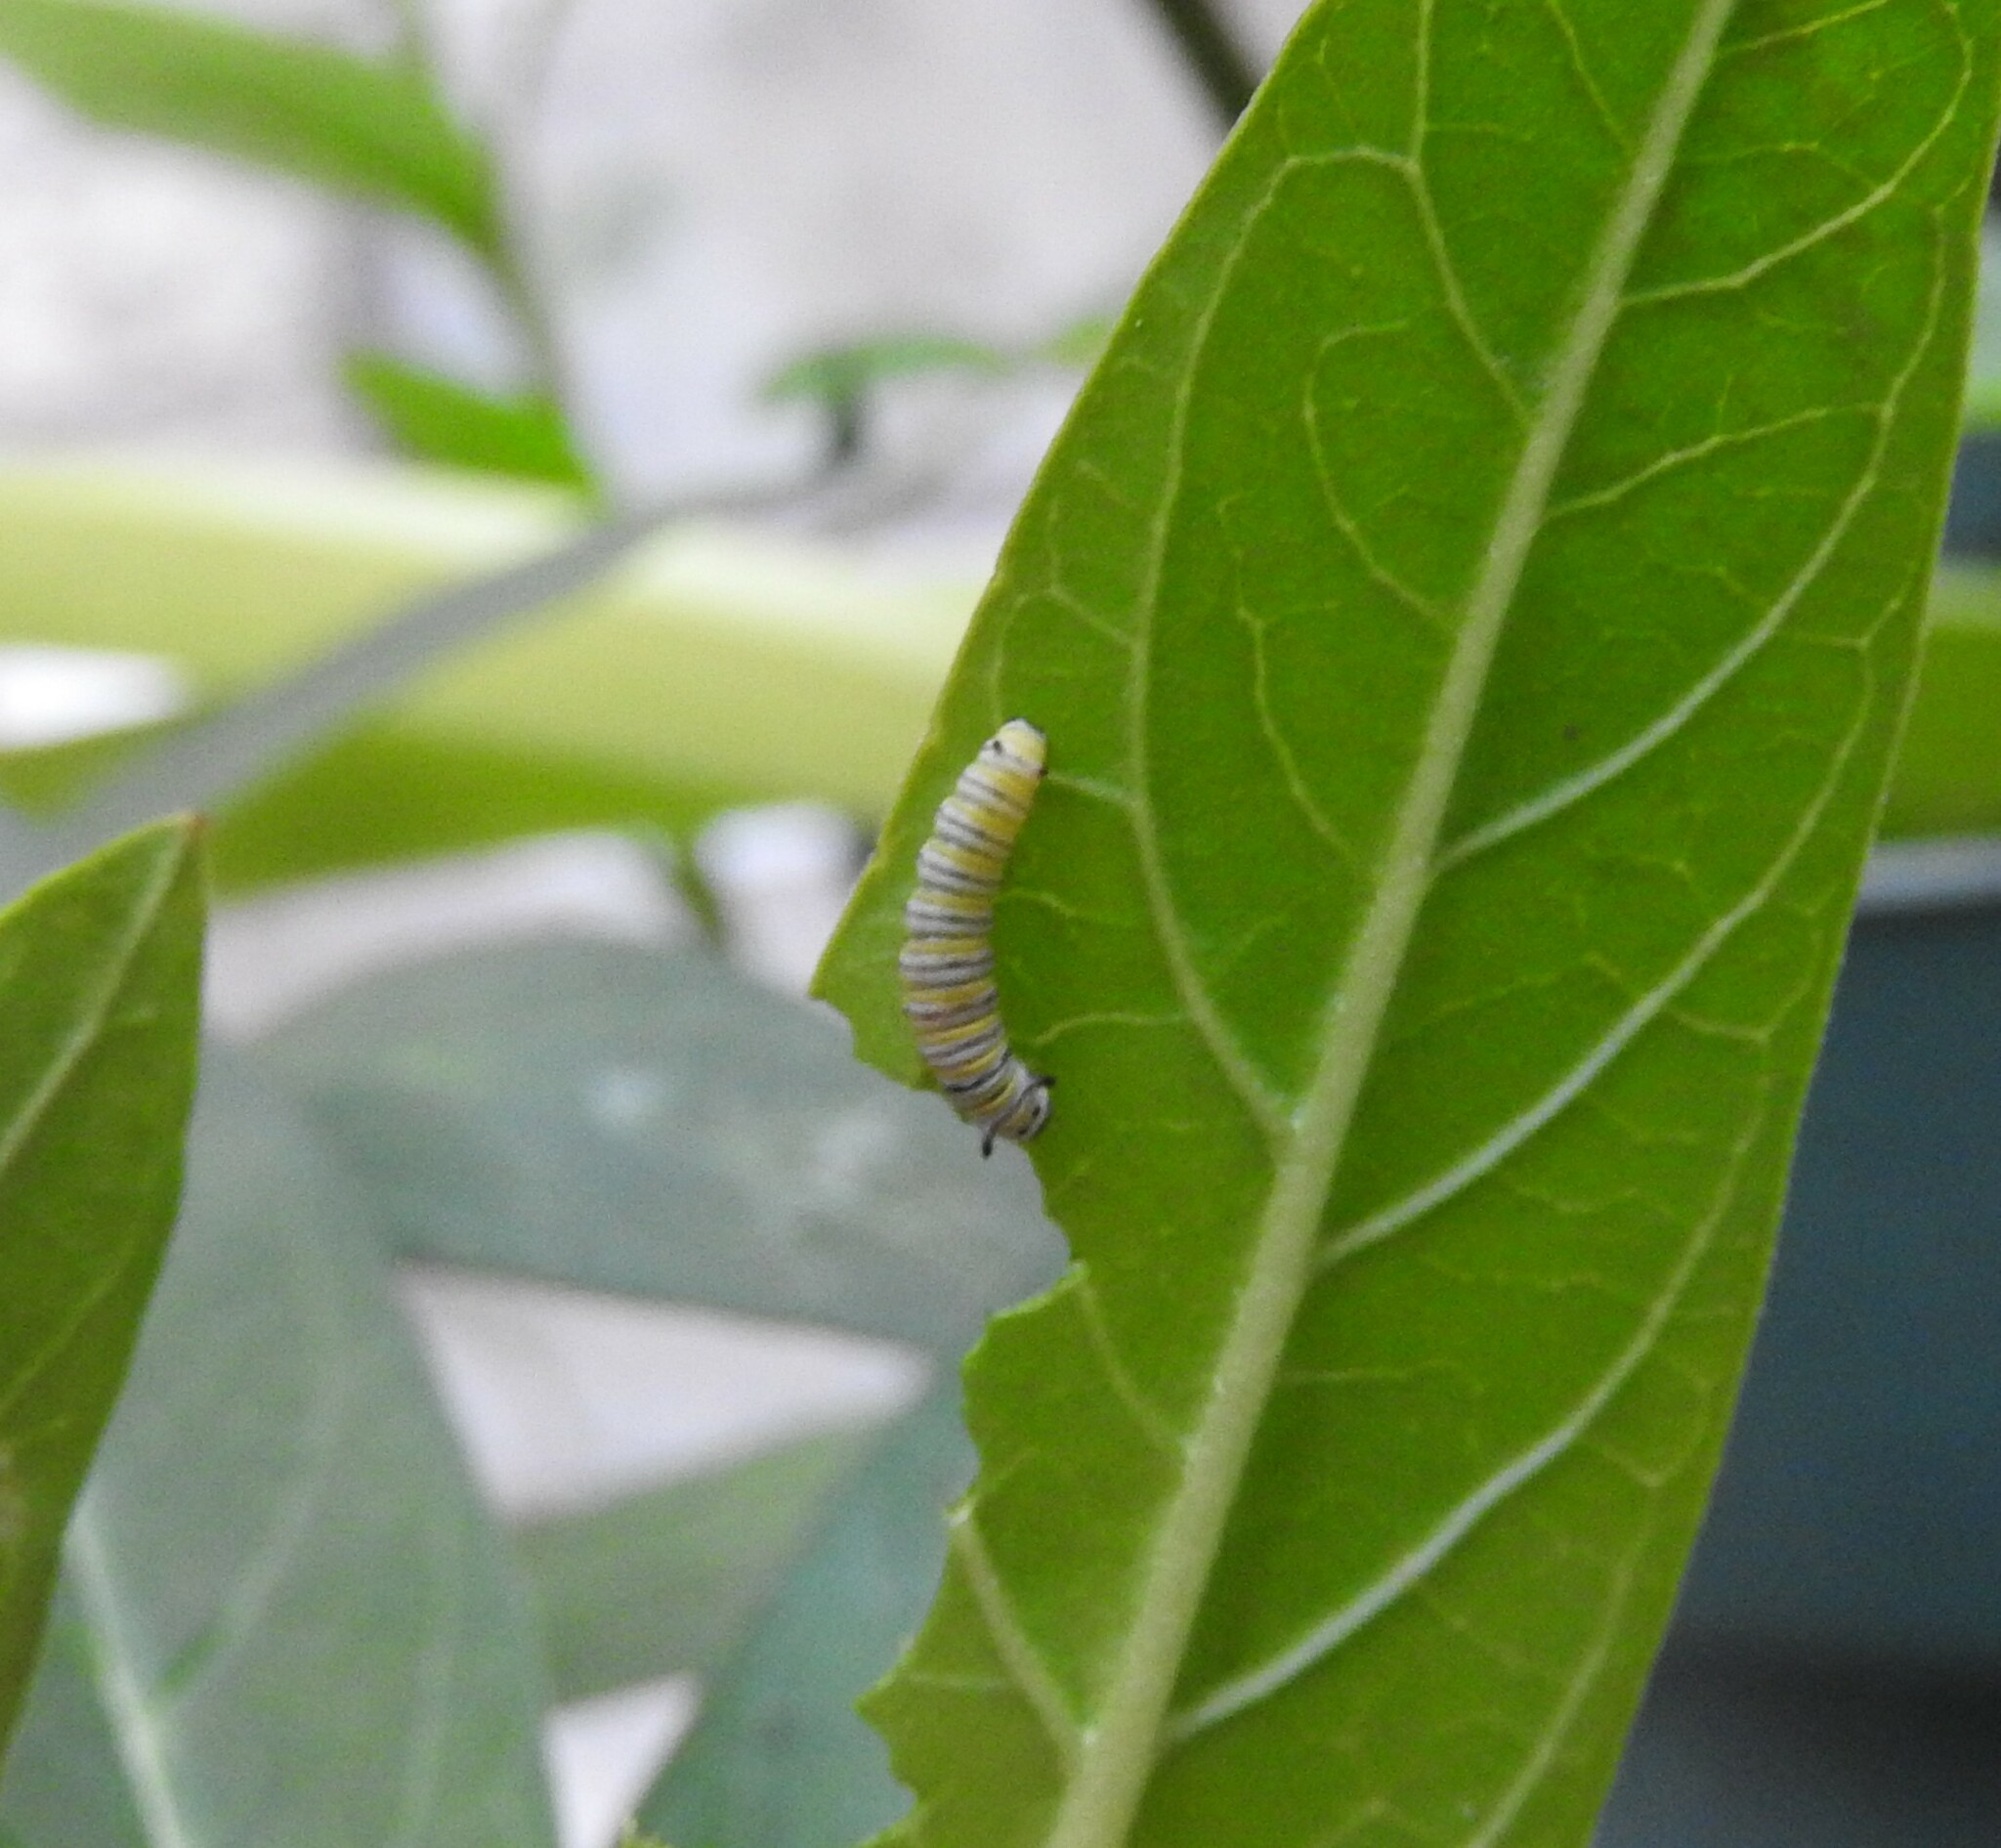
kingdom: Animalia
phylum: Arthropoda
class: Insecta
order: Lepidoptera
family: Nymphalidae
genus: Danaus
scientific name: Danaus plexippus
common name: Monarch
